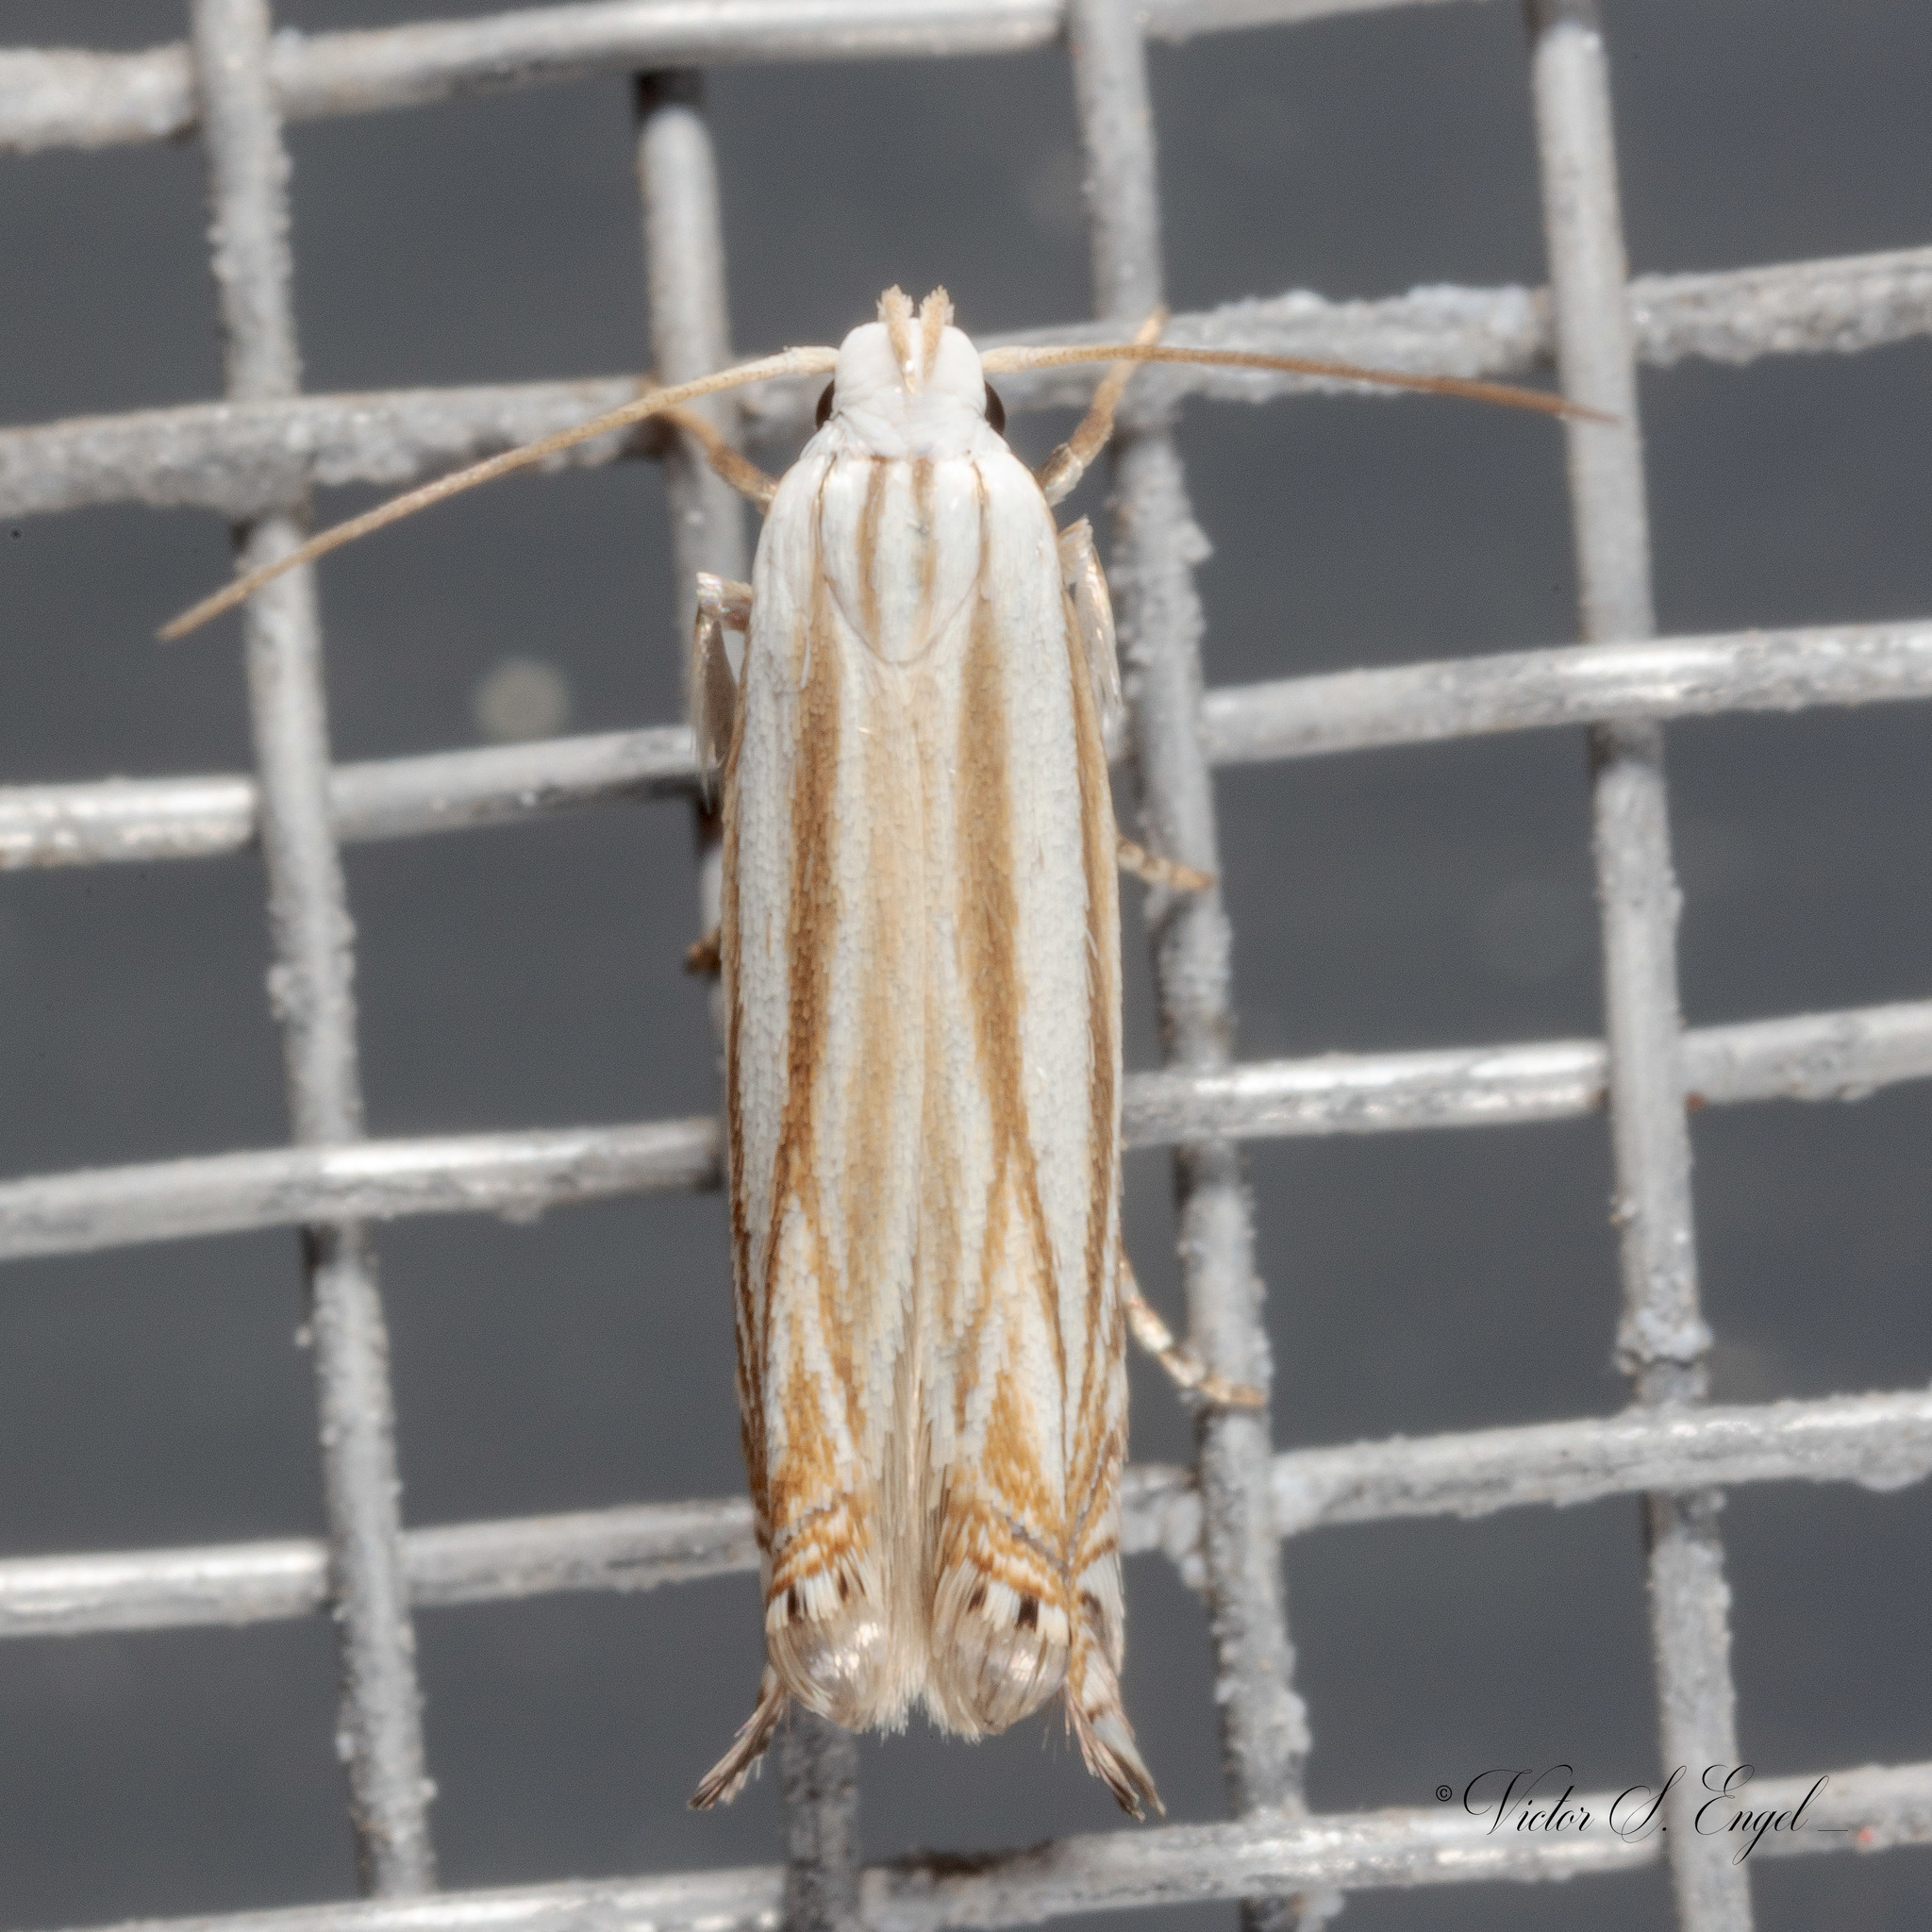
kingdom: Animalia
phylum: Arthropoda
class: Insecta
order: Lepidoptera
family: Gelechiidae
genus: Polyhymno
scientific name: Polyhymno luteostrigella
